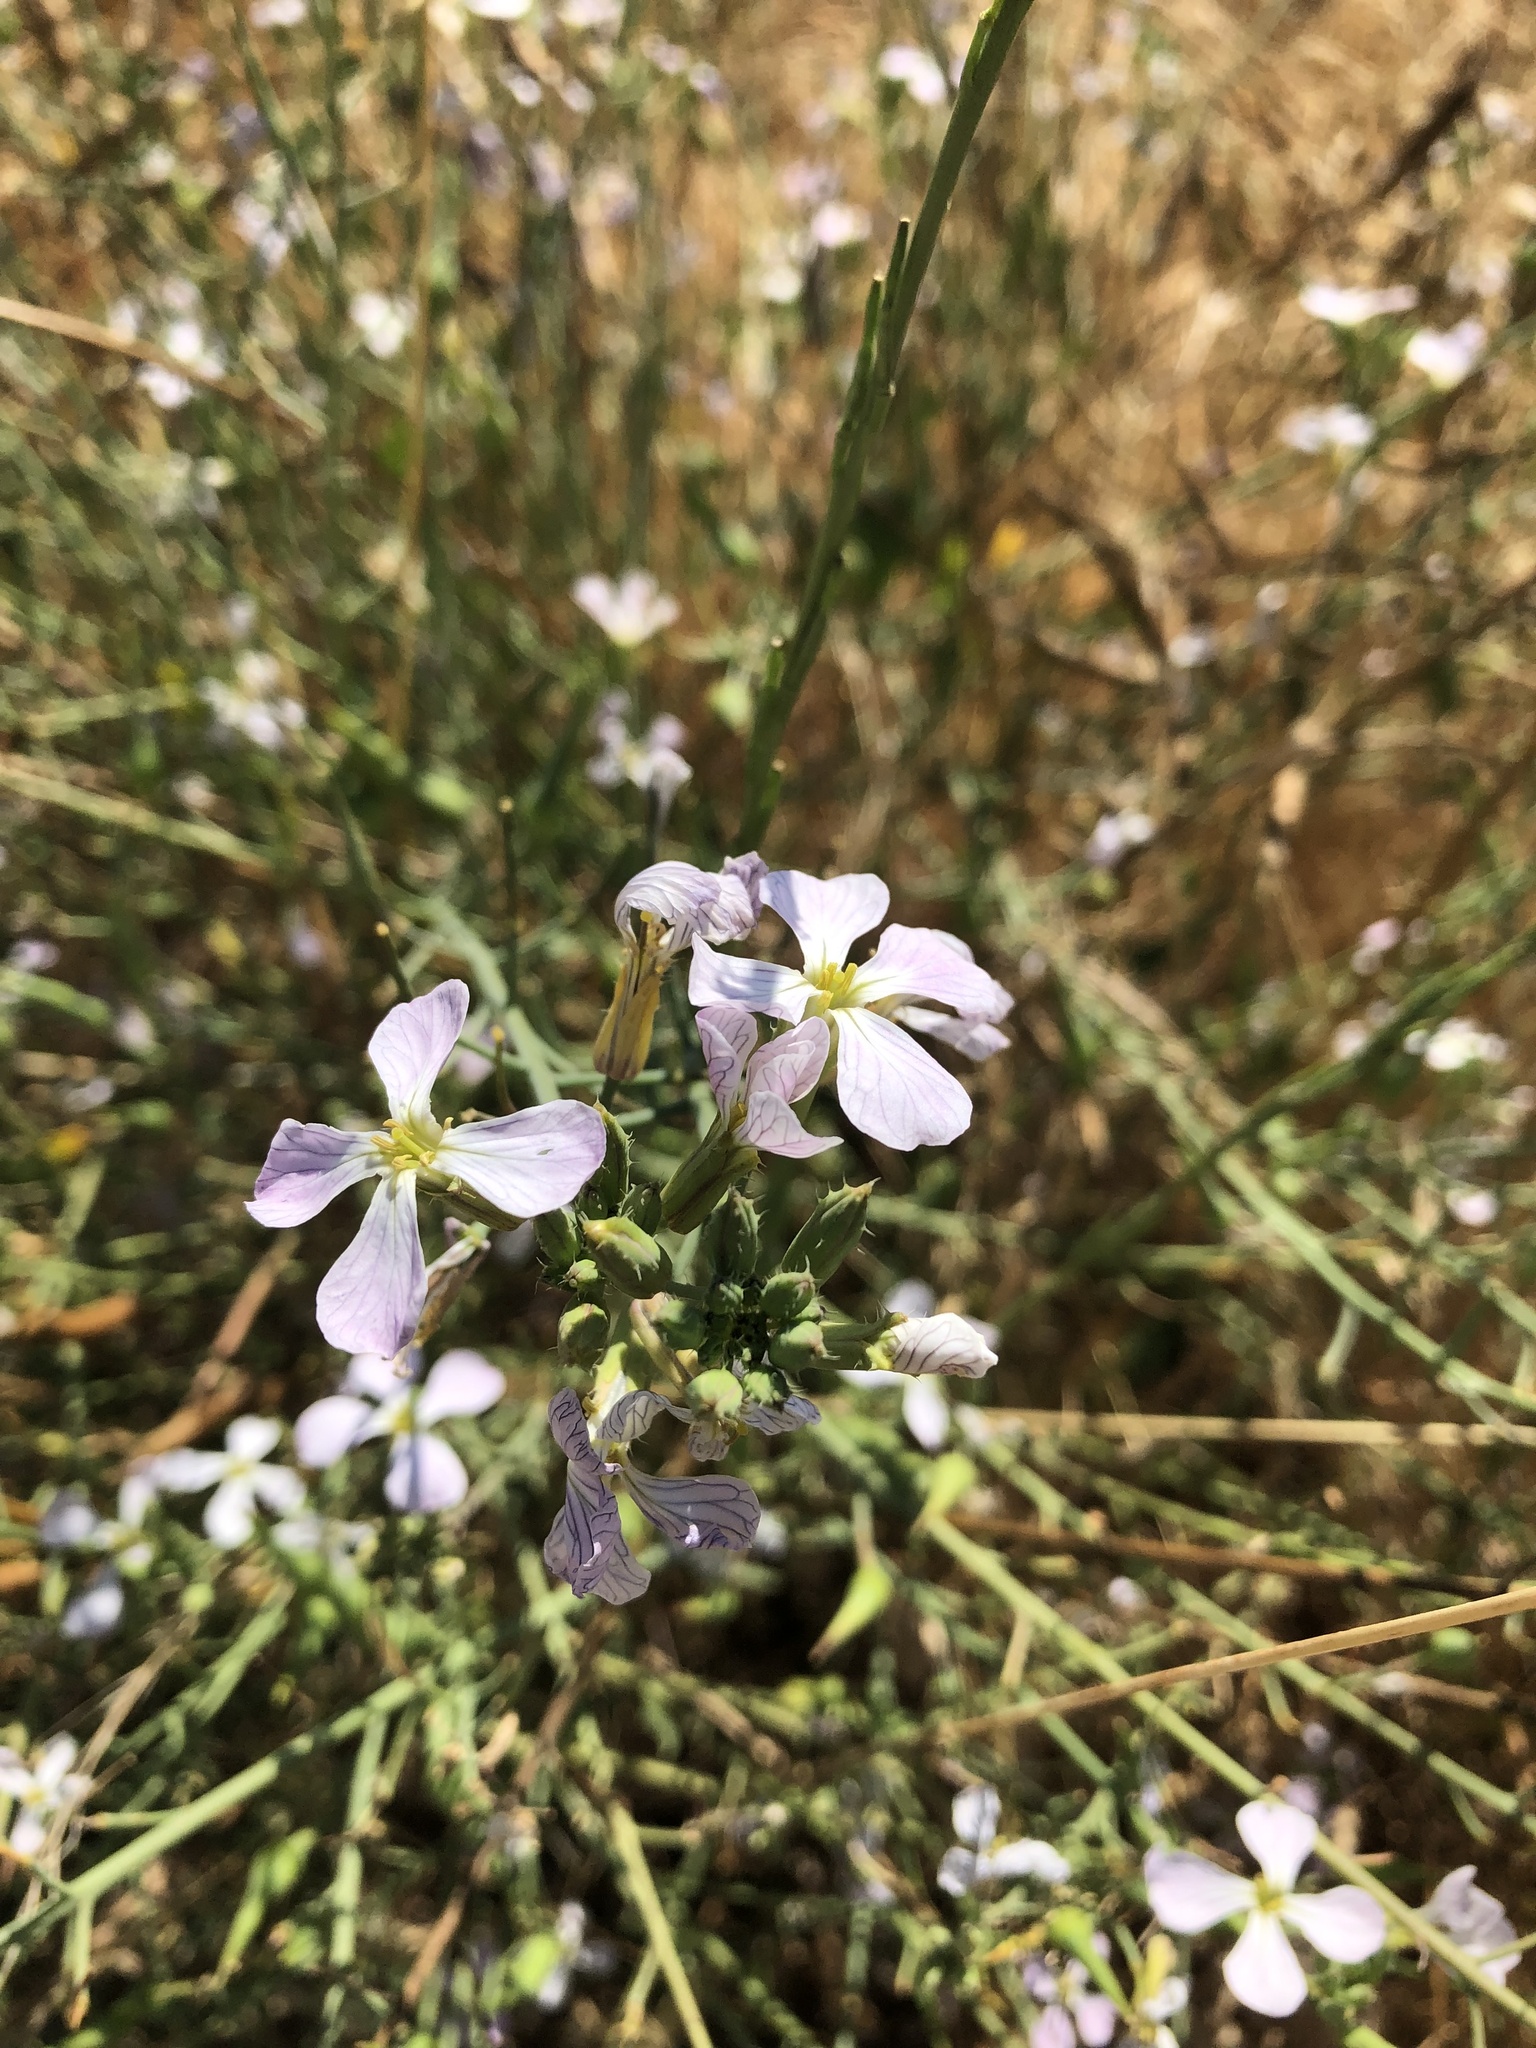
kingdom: Plantae
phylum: Tracheophyta
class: Magnoliopsida
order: Brassicales
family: Brassicaceae
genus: Raphanus
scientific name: Raphanus sativus
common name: Cultivated radish
